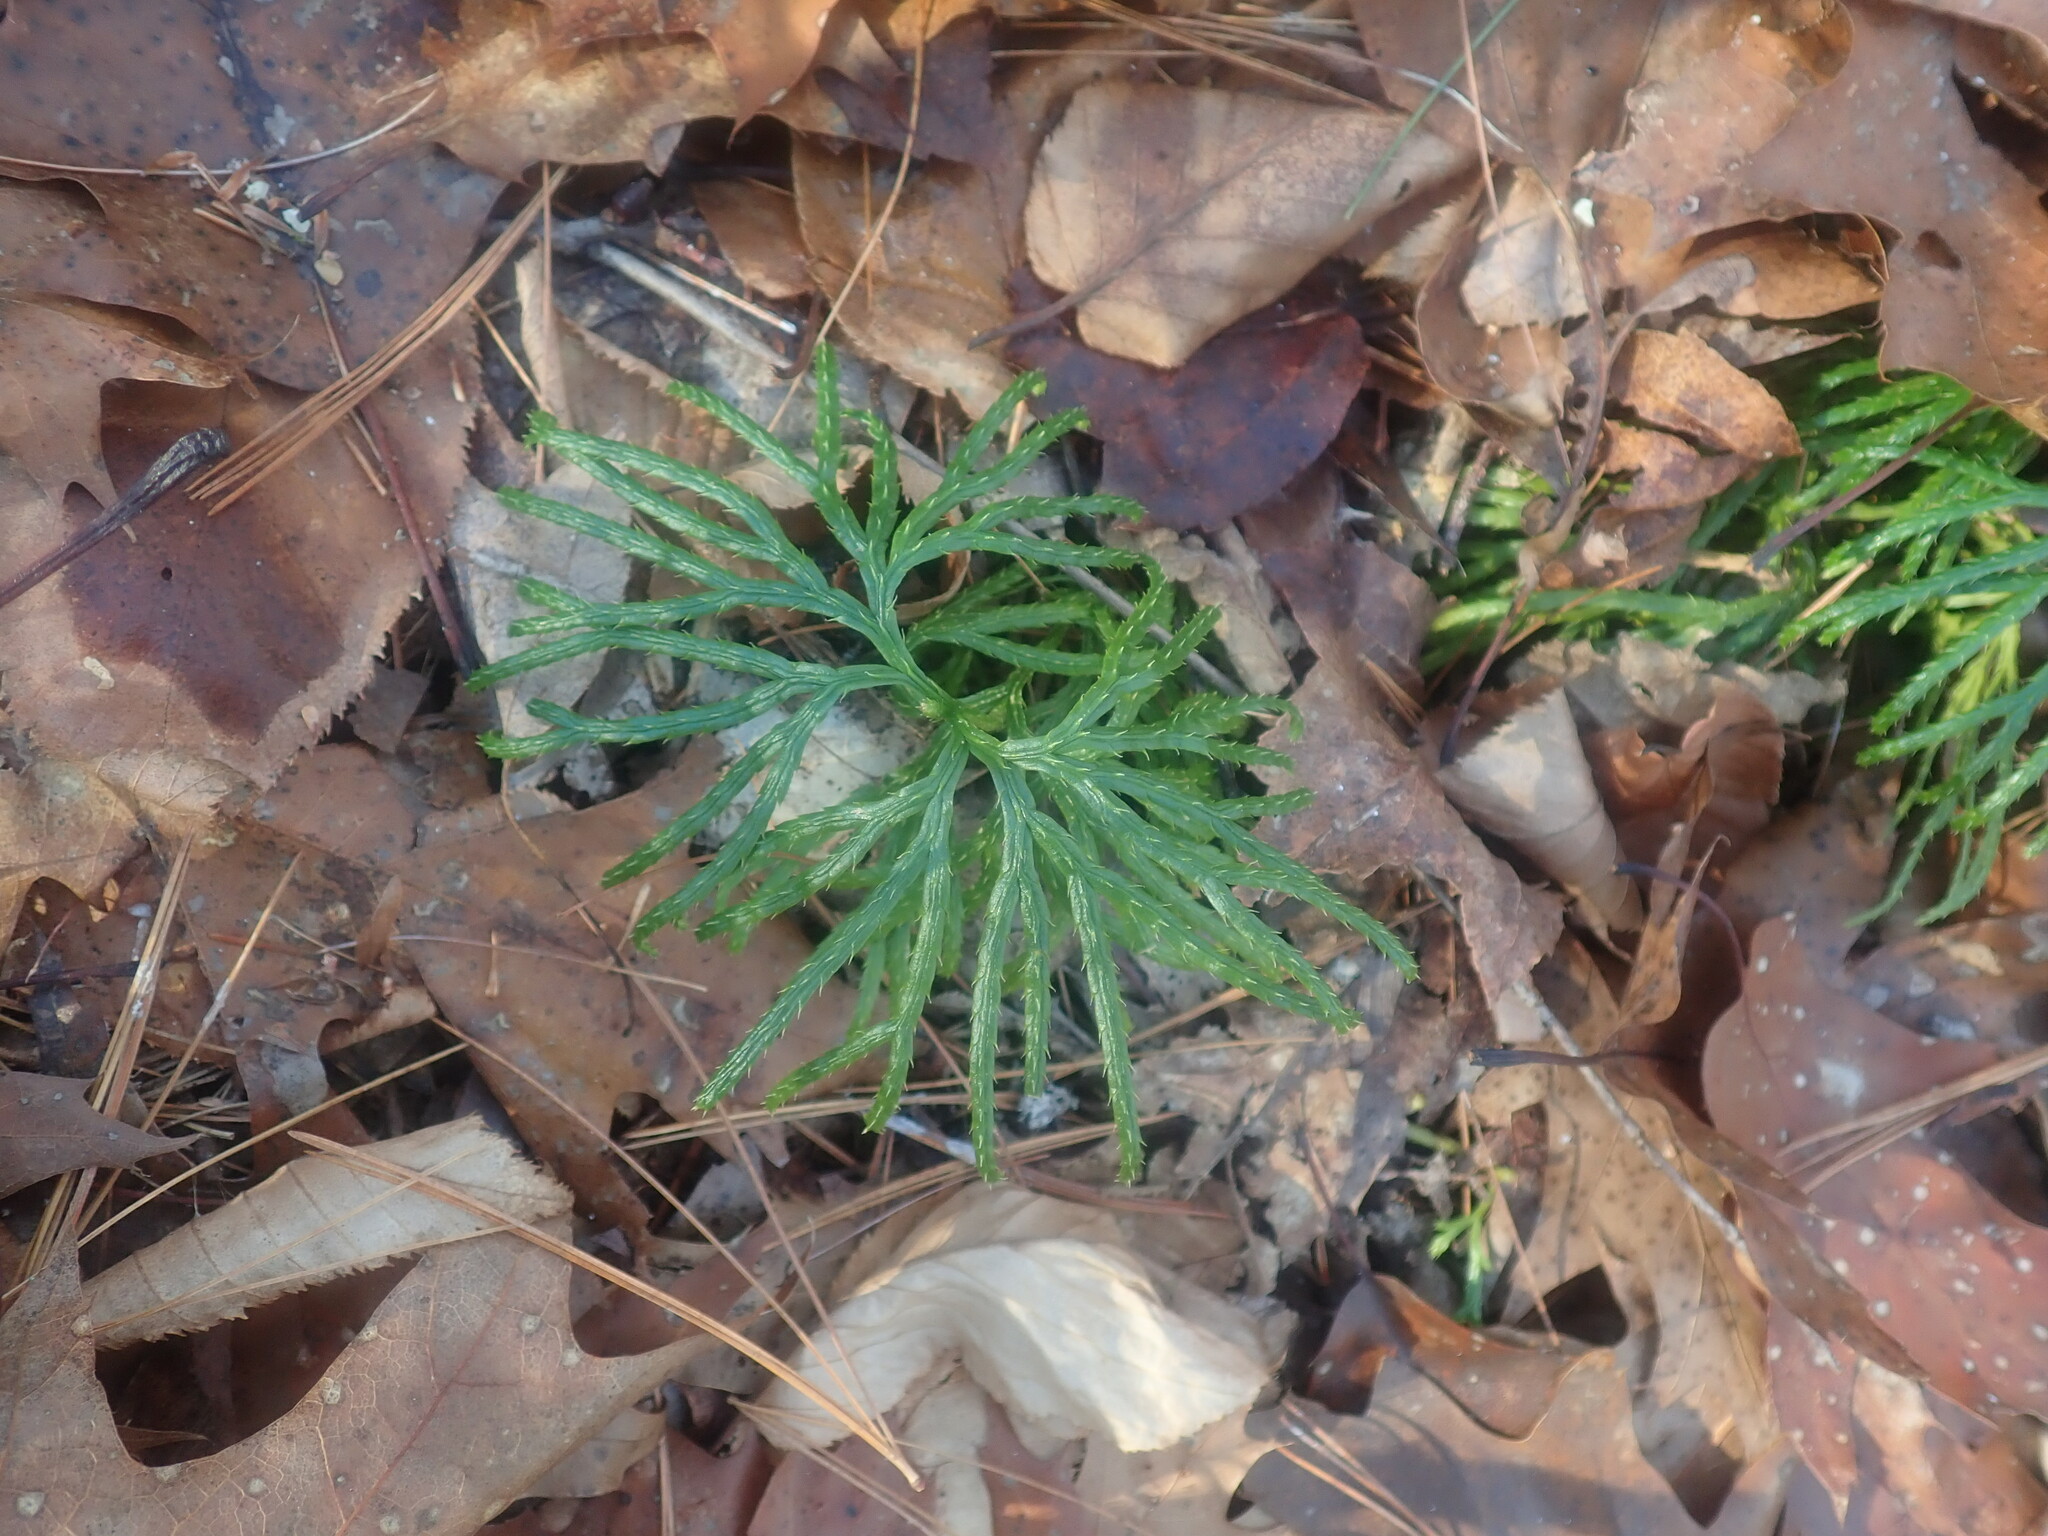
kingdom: Plantae
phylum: Tracheophyta
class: Lycopodiopsida
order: Lycopodiales
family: Lycopodiaceae
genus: Diphasiastrum
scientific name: Diphasiastrum digitatum
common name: Southern running-pine
